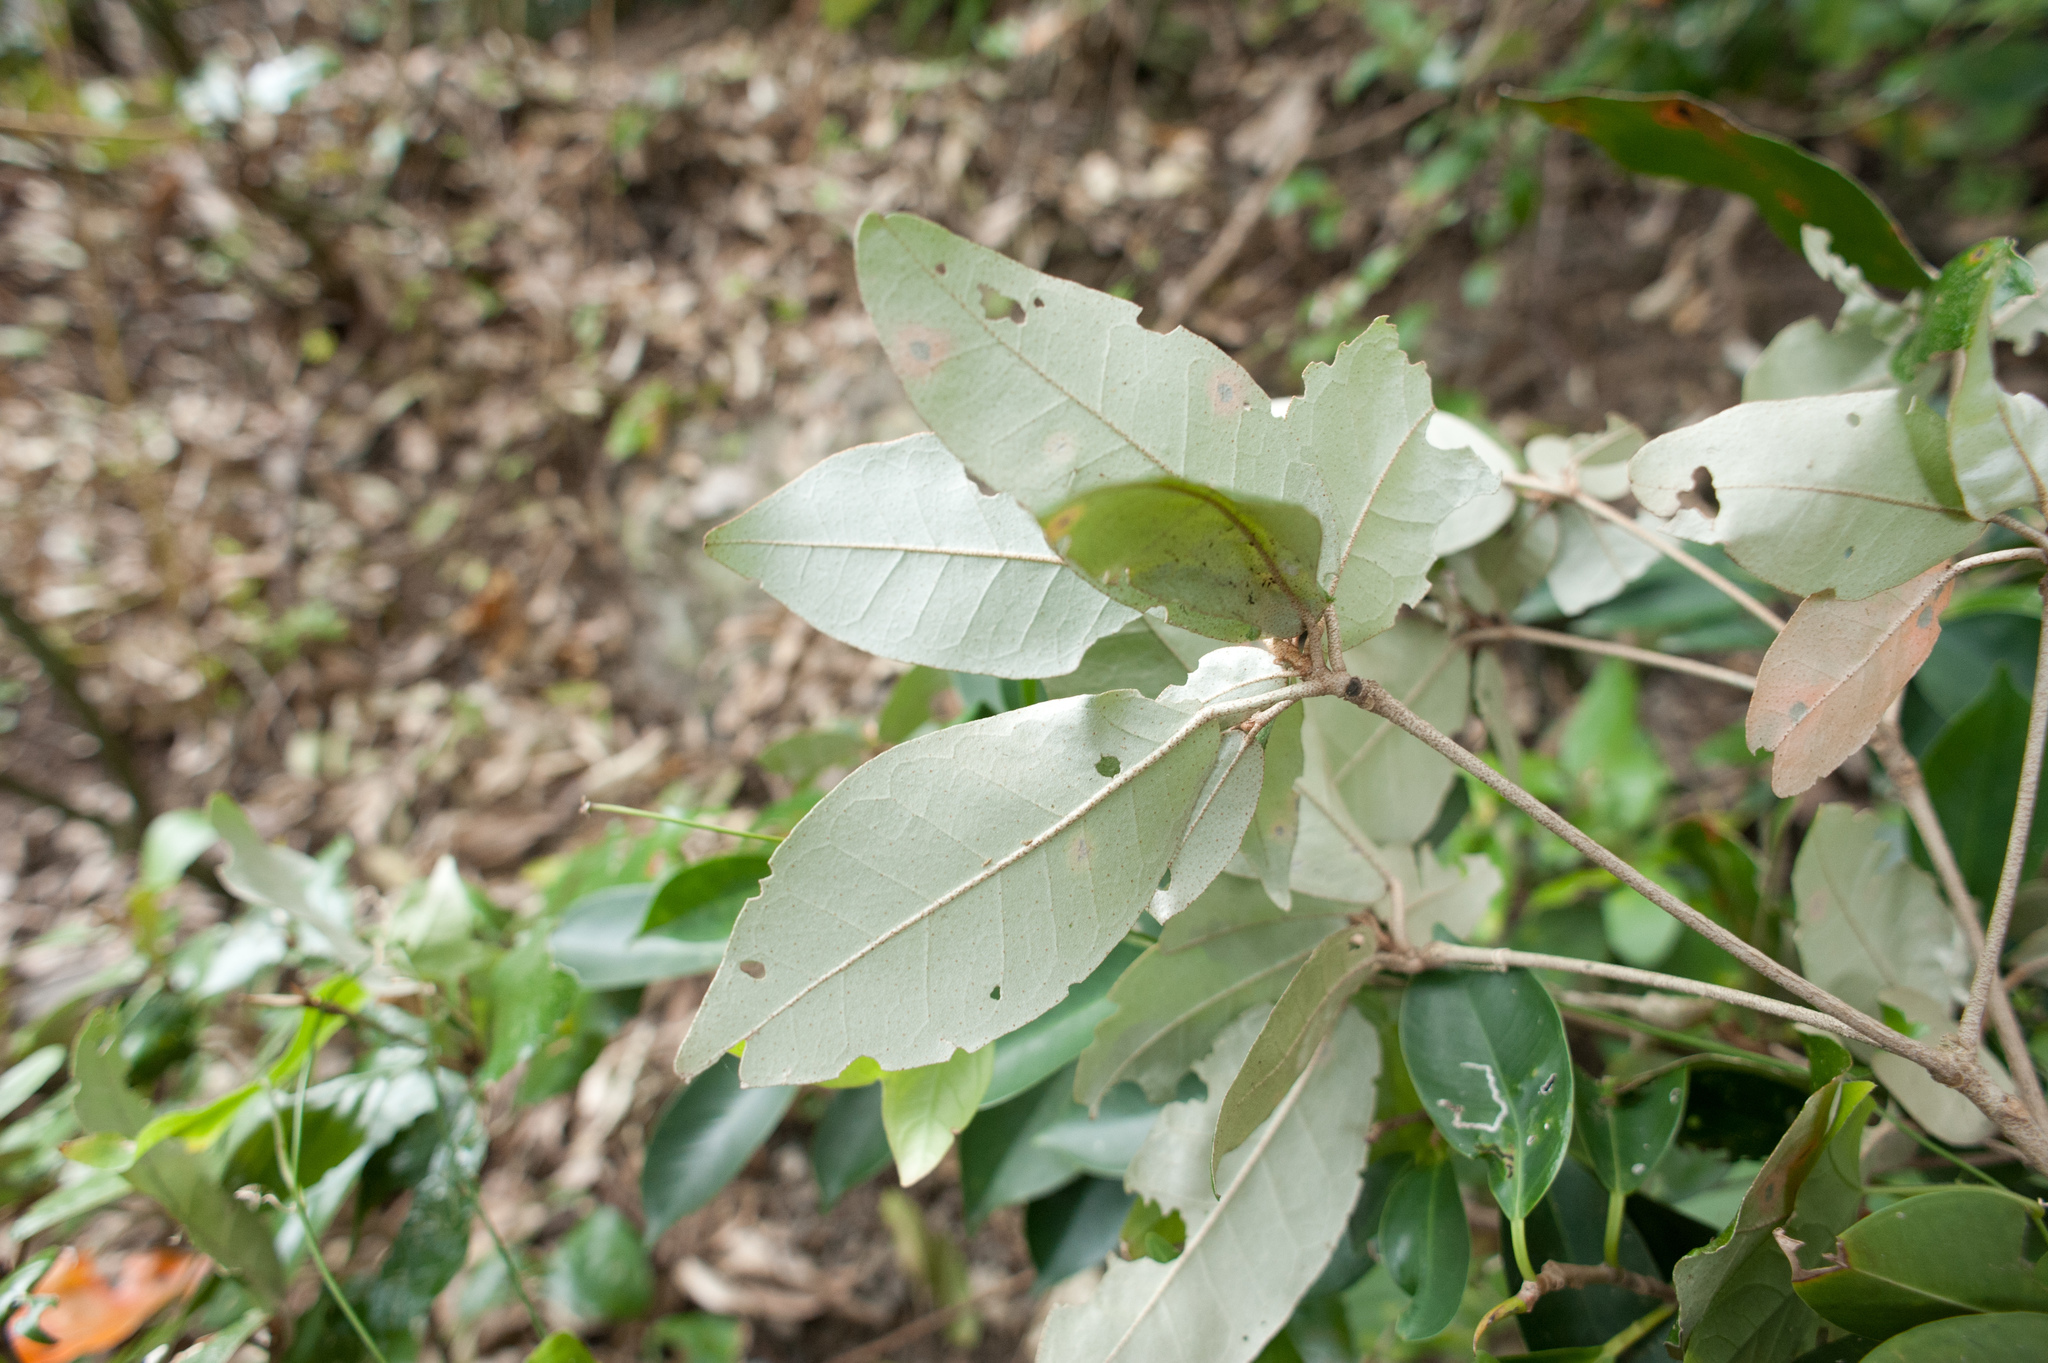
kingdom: Plantae
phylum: Tracheophyta
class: Magnoliopsida
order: Malpighiales
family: Euphorbiaceae
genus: Croton
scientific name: Croton cascarilloides
